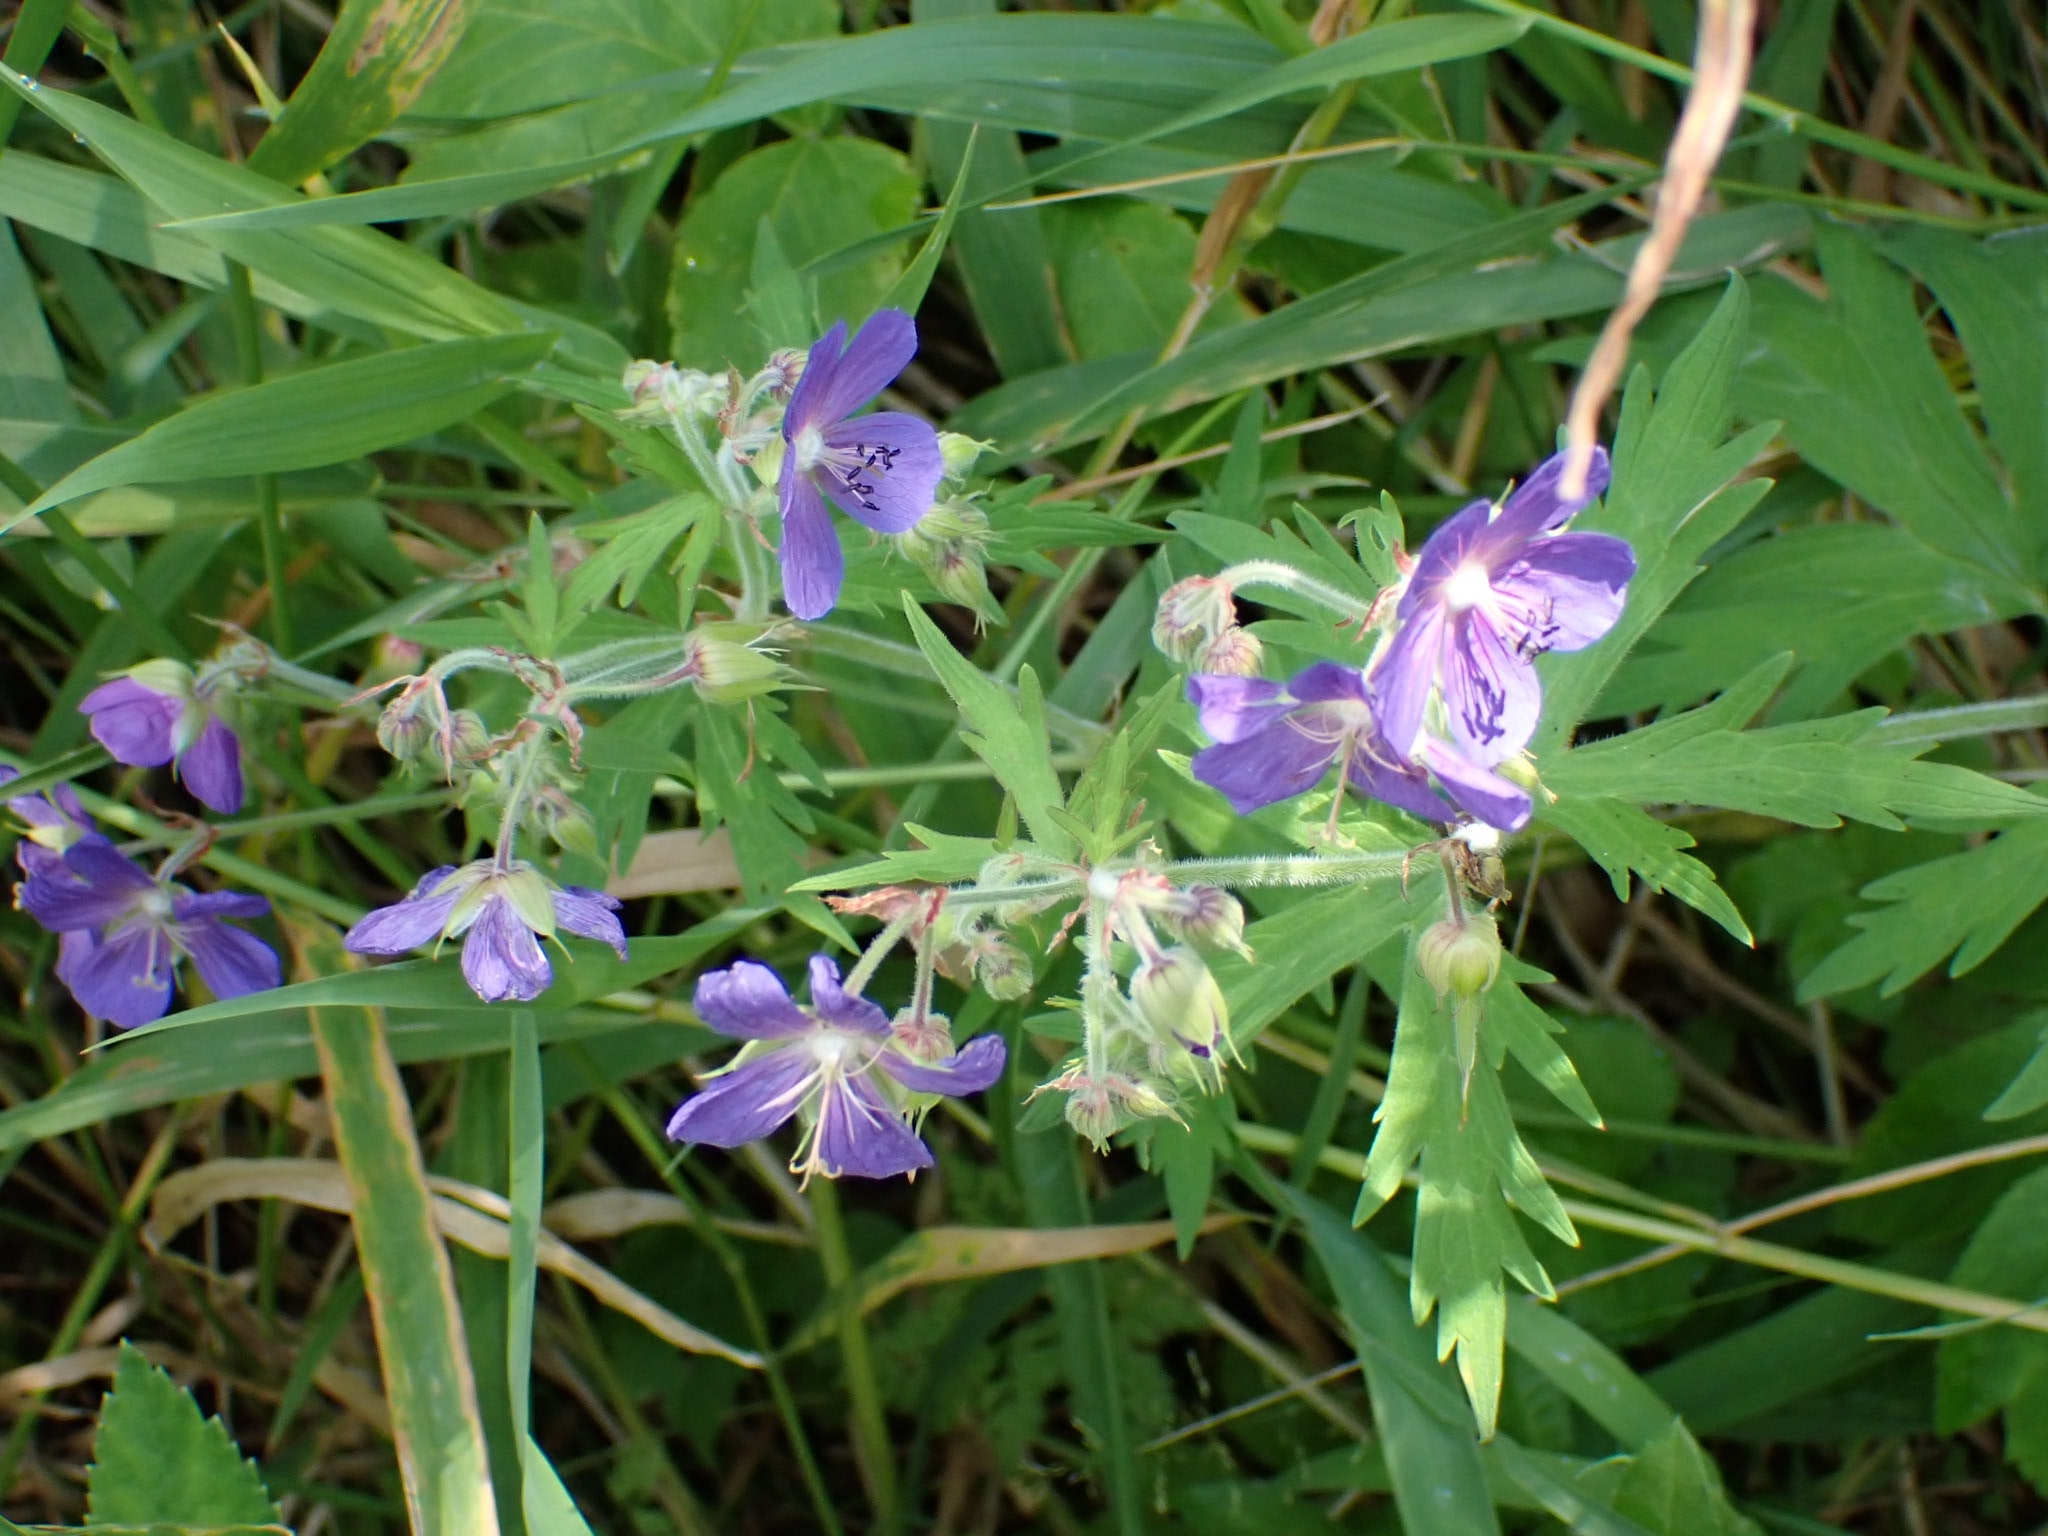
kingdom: Plantae
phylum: Tracheophyta
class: Magnoliopsida
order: Geraniales
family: Geraniaceae
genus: Geranium
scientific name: Geranium pratense
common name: Meadow crane's-bill
